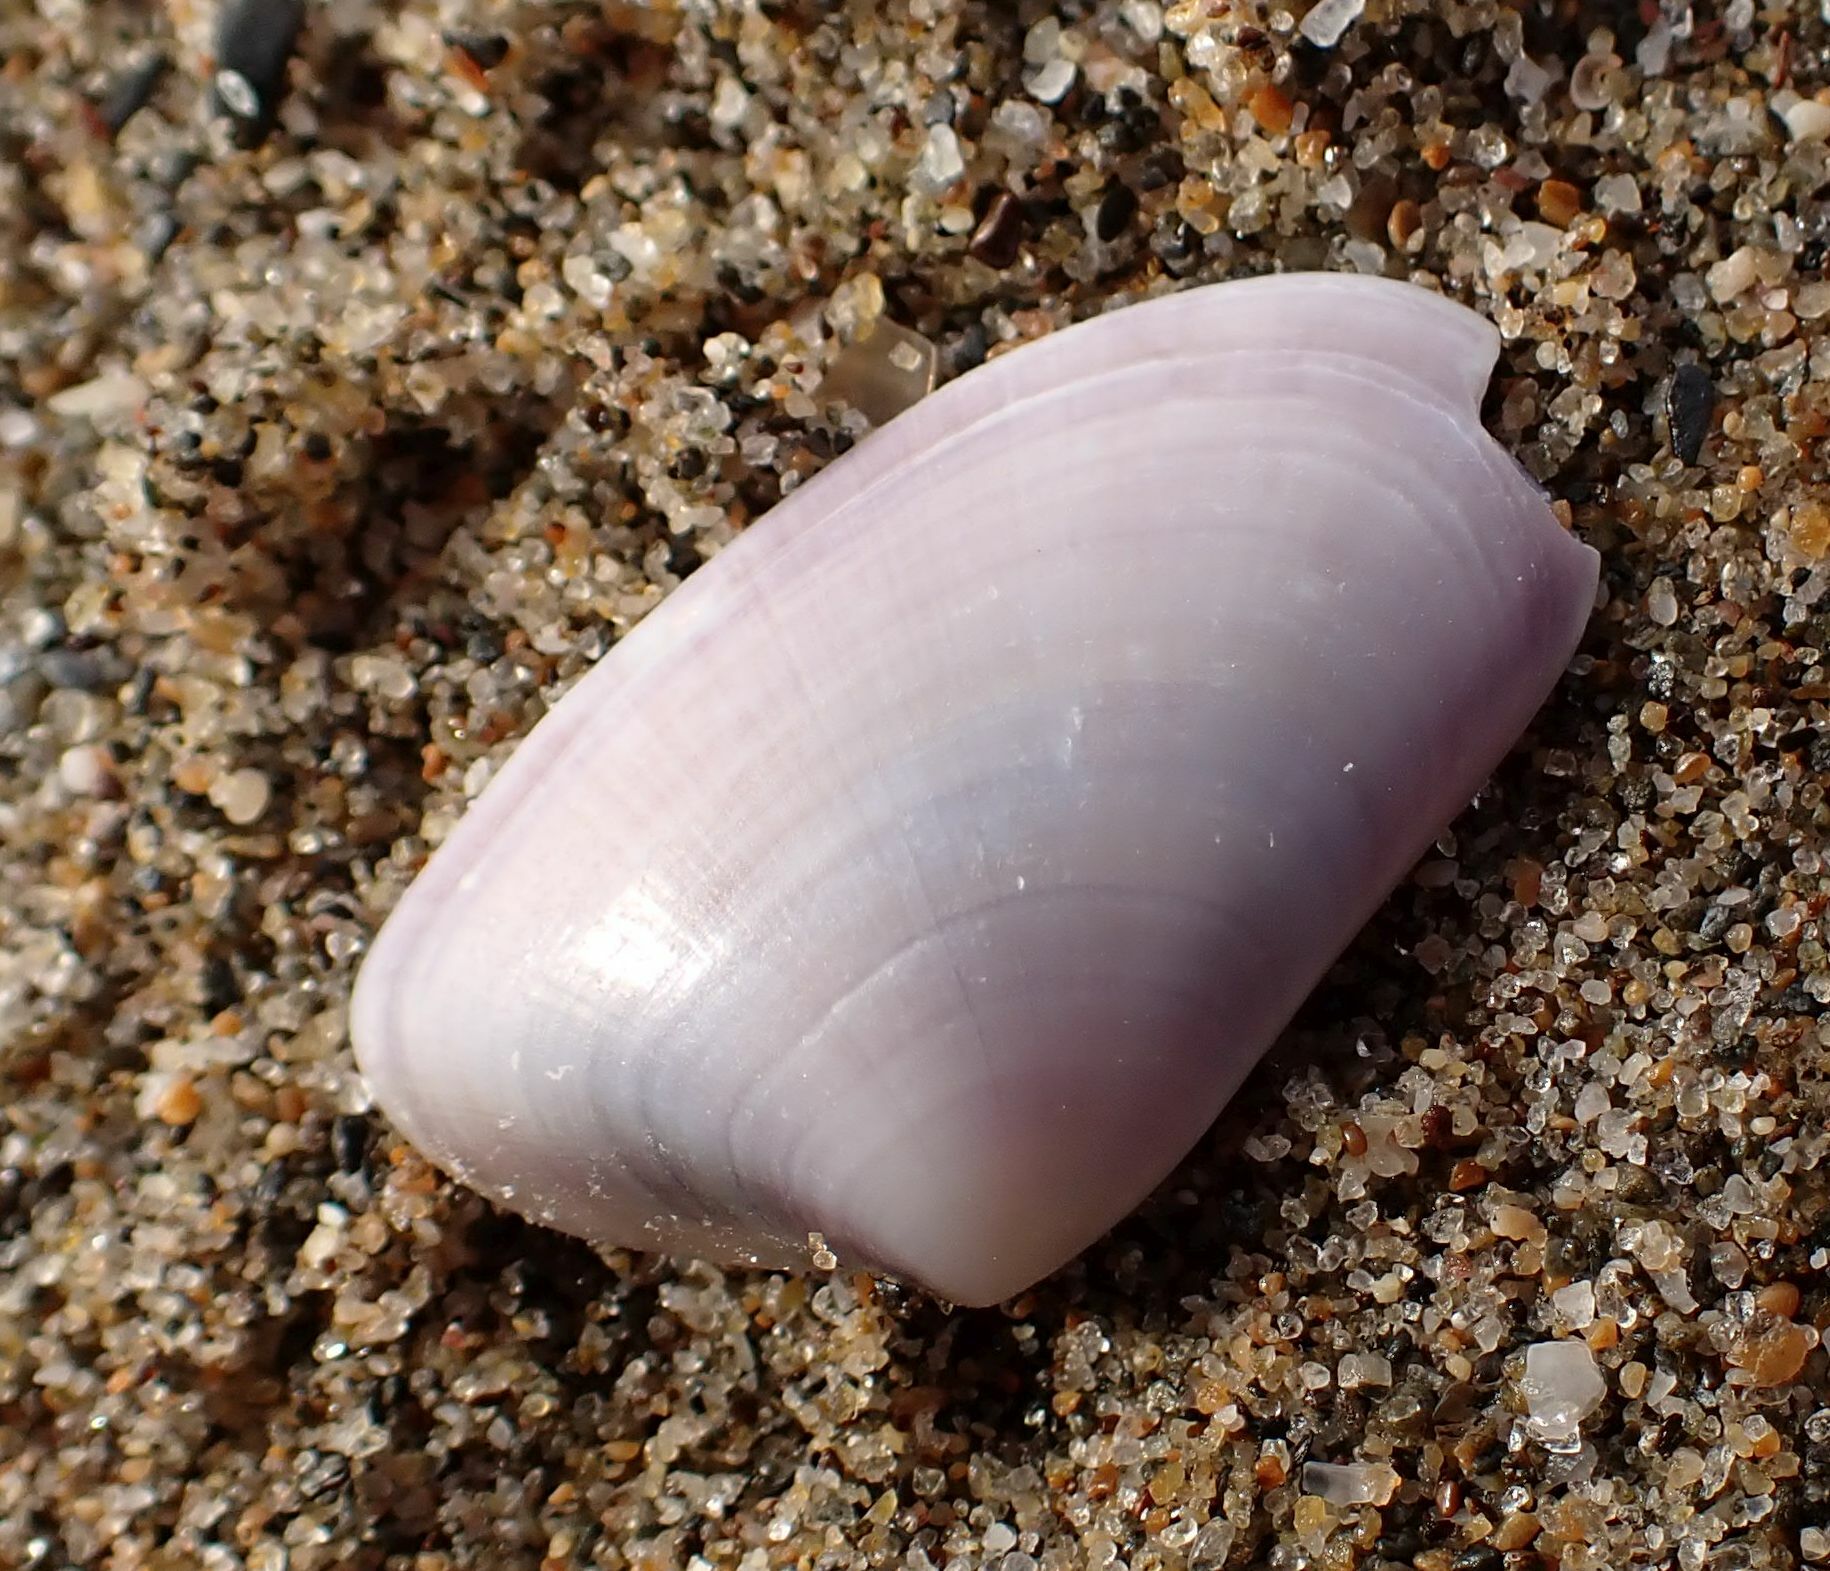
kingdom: Animalia
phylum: Mollusca
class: Bivalvia
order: Cardiida
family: Donacidae
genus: Donax
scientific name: Donax trunculus
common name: Truncate donax
